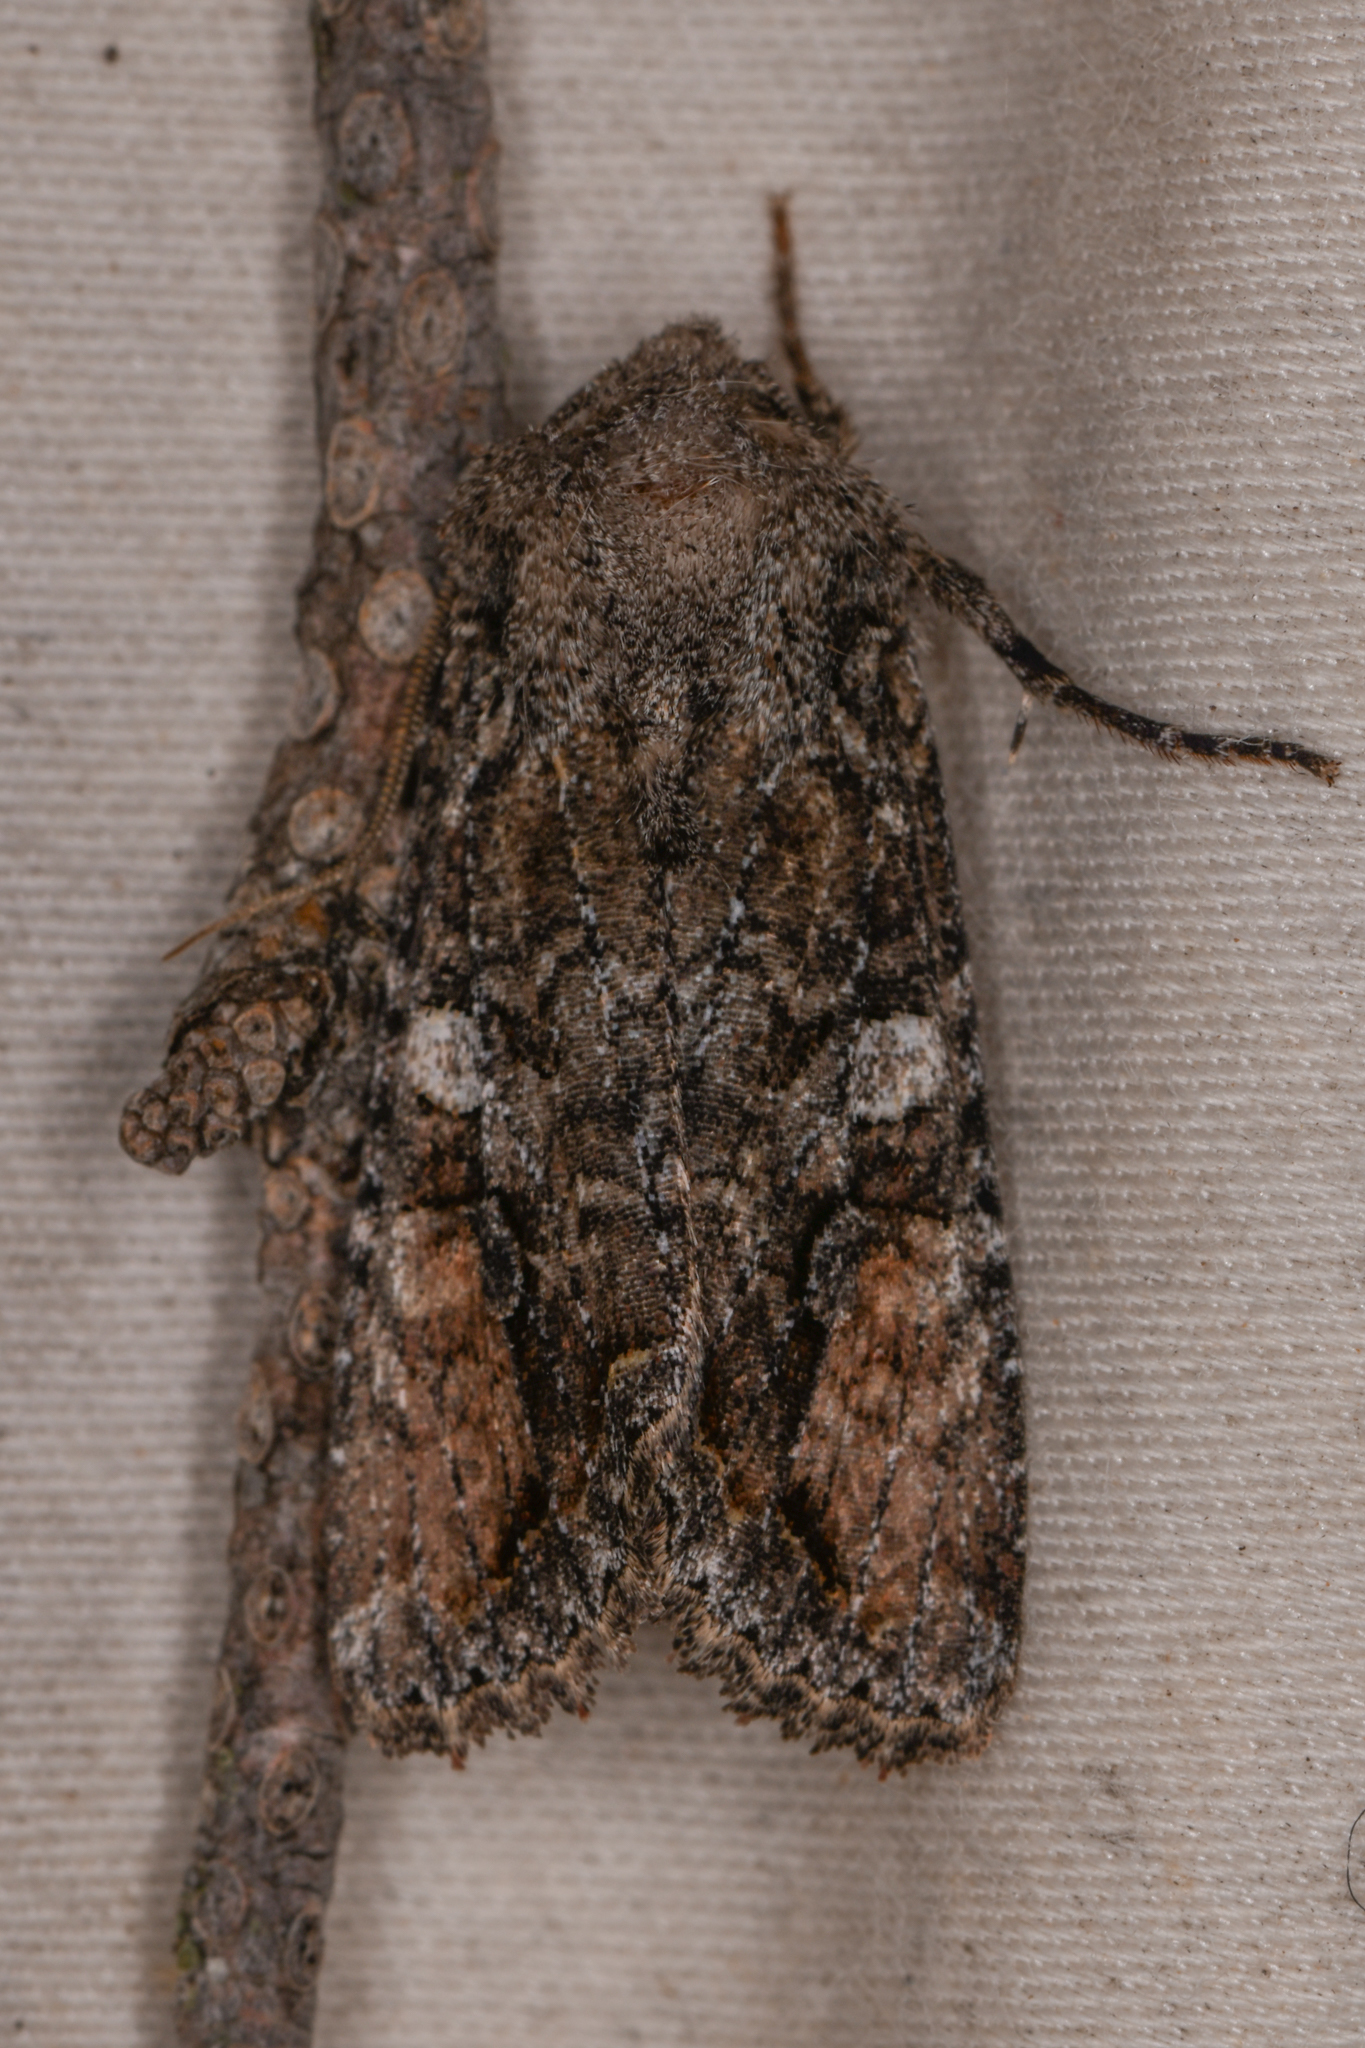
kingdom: Animalia
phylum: Arthropoda
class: Insecta
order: Lepidoptera
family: Noctuidae
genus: Egira
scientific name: Egira perlubens
